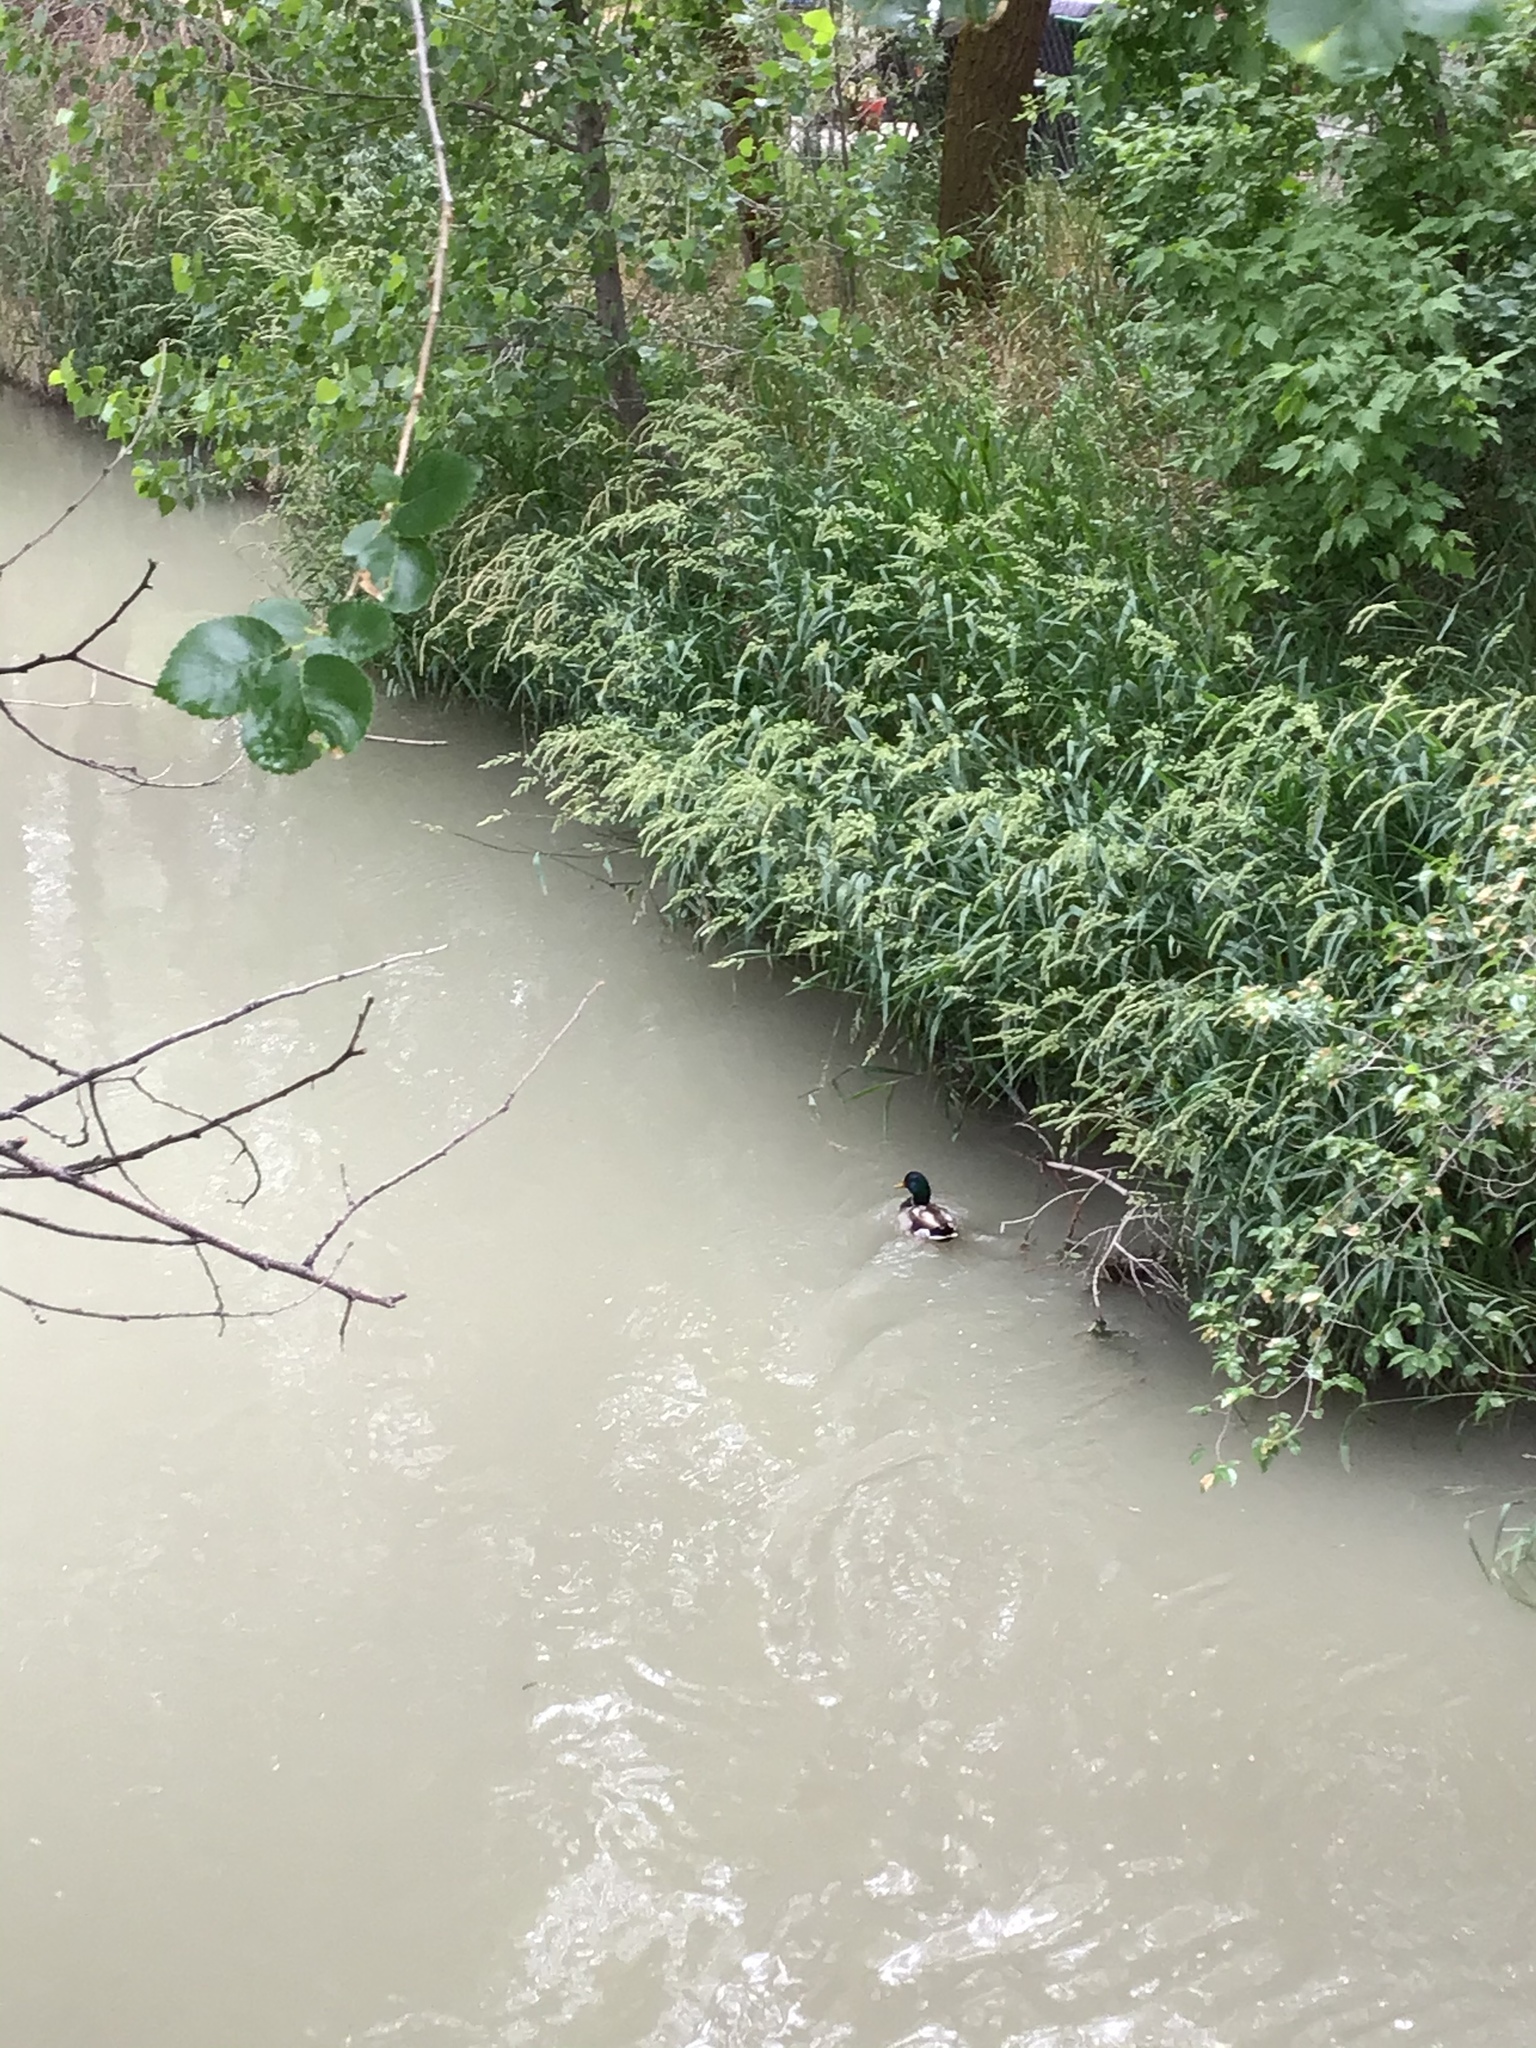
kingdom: Animalia
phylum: Chordata
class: Aves
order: Anseriformes
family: Anatidae
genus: Anas
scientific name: Anas platyrhynchos
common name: Mallard
